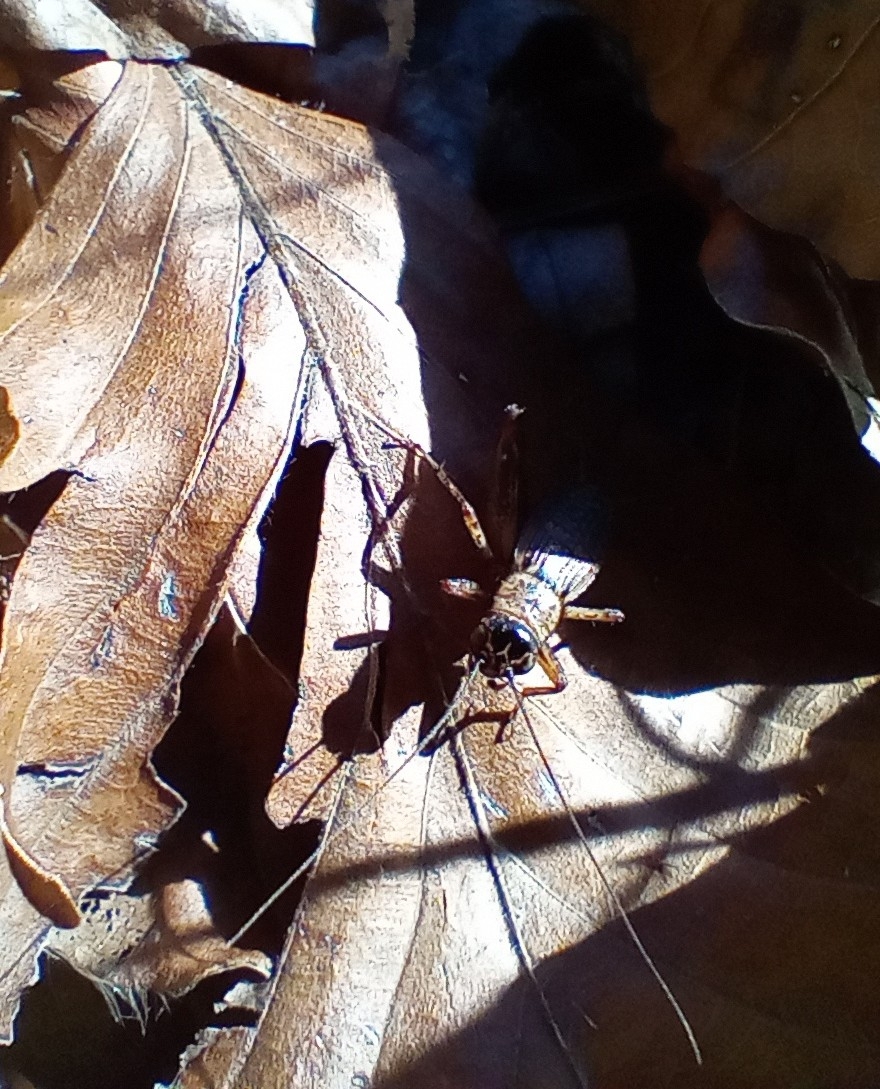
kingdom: Animalia
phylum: Arthropoda
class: Insecta
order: Orthoptera
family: Trigonidiidae
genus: Nemobius
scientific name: Nemobius sylvestris
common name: Wood-cricket
